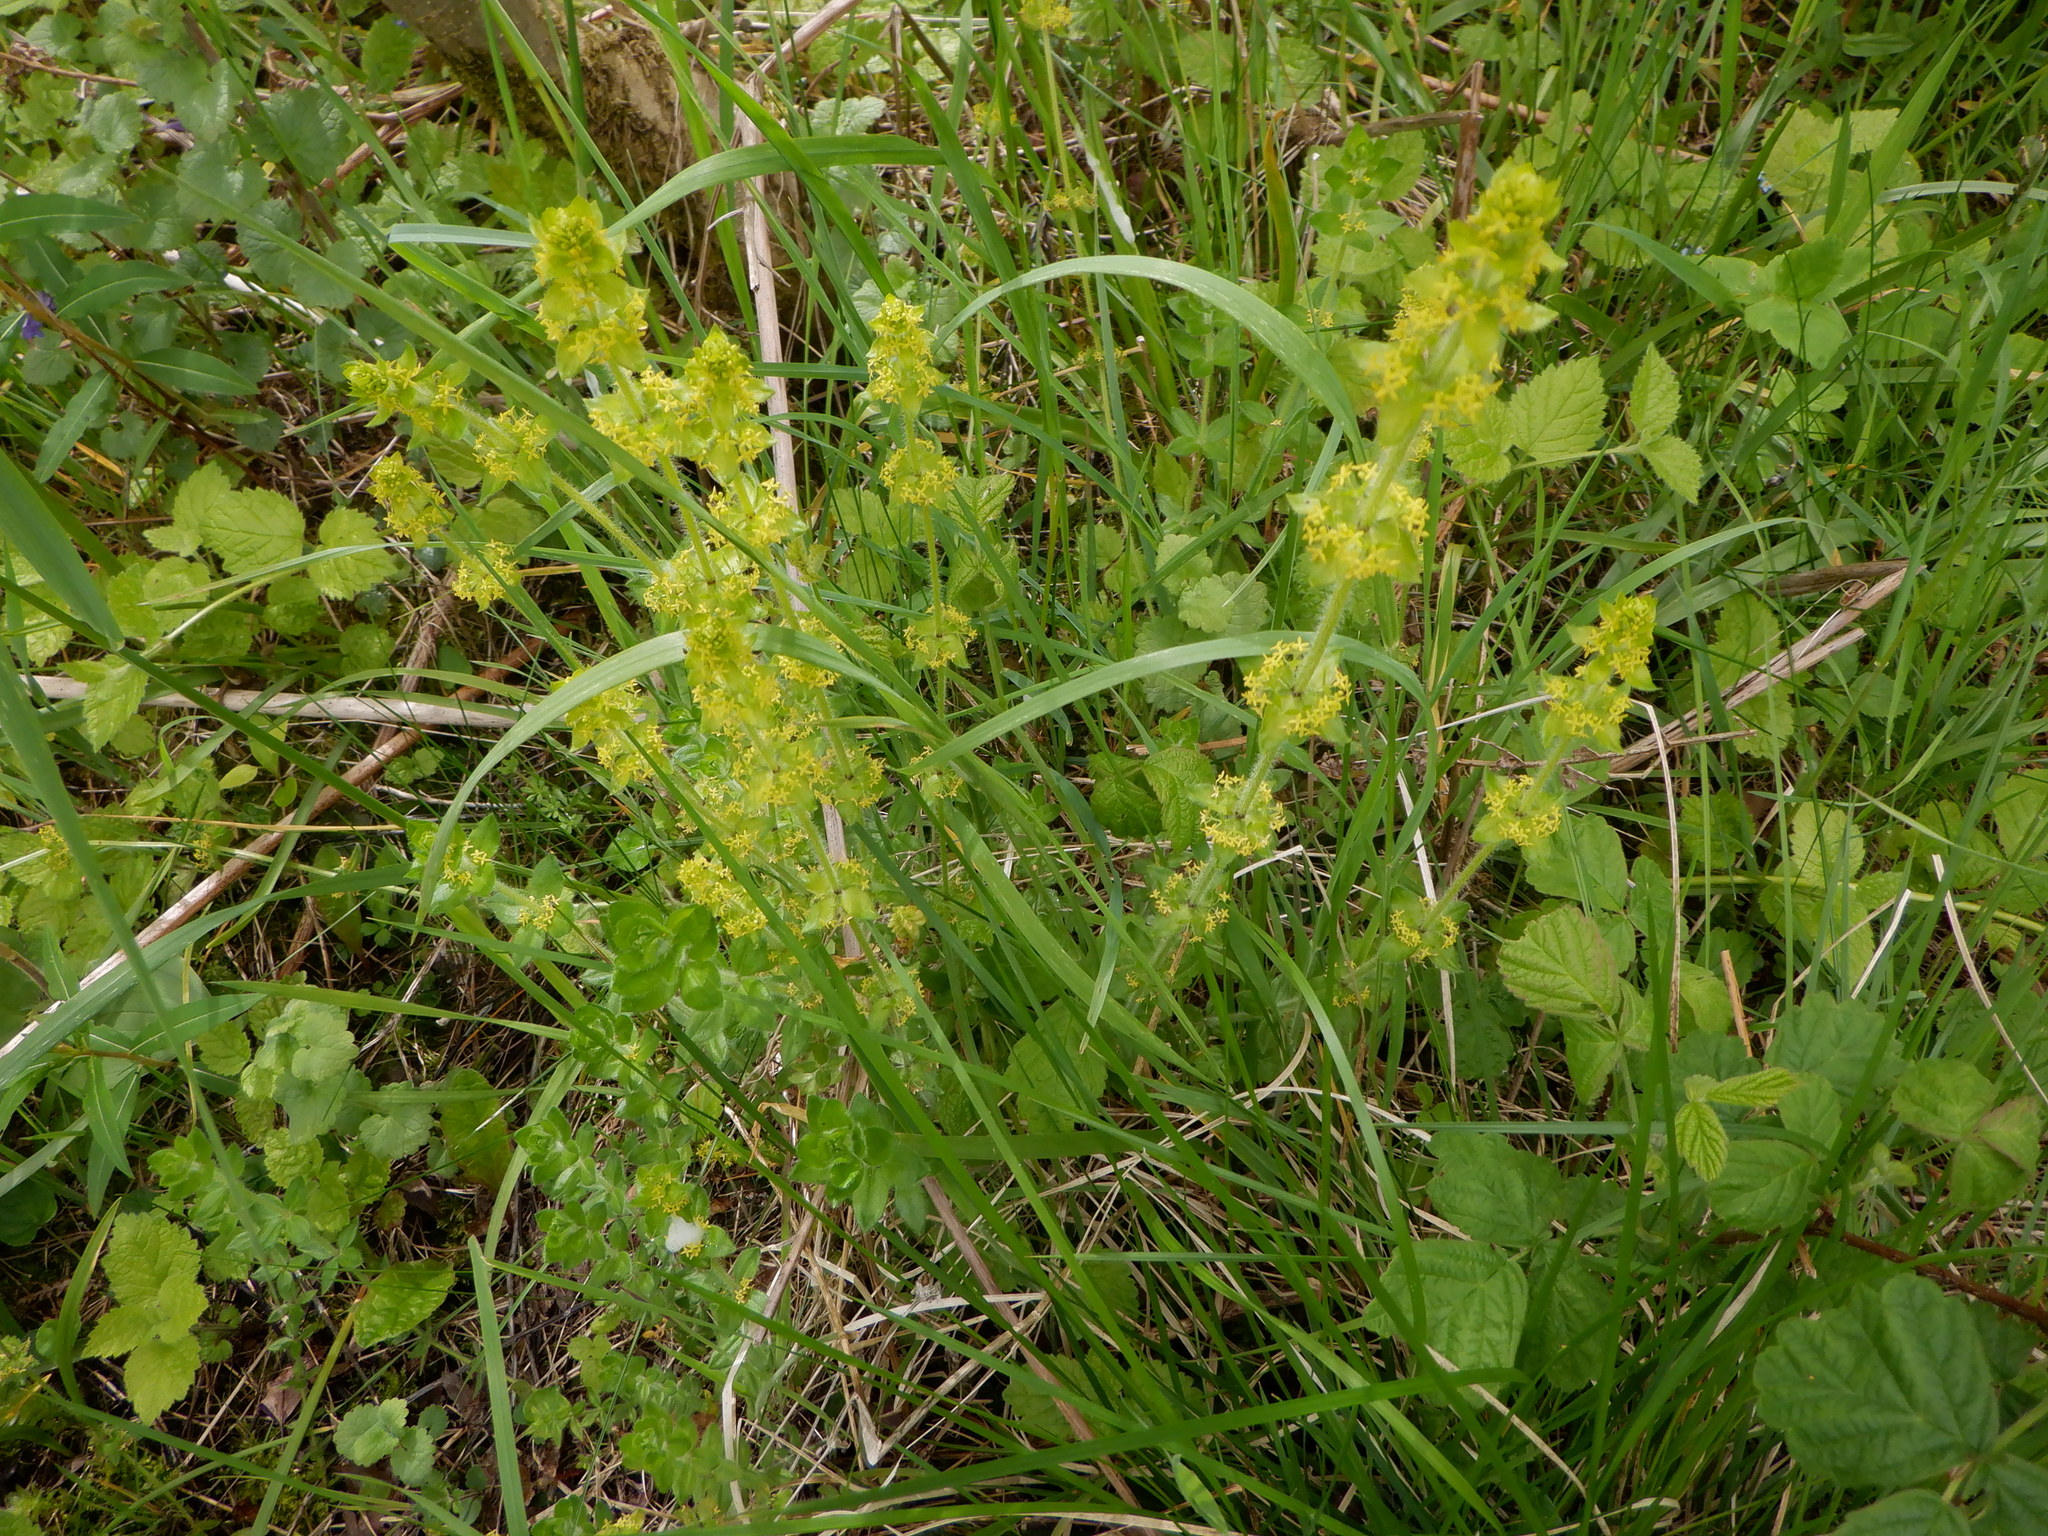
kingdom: Plantae
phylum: Tracheophyta
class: Magnoliopsida
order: Gentianales
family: Rubiaceae
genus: Cruciata
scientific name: Cruciata laevipes
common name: Crosswort
